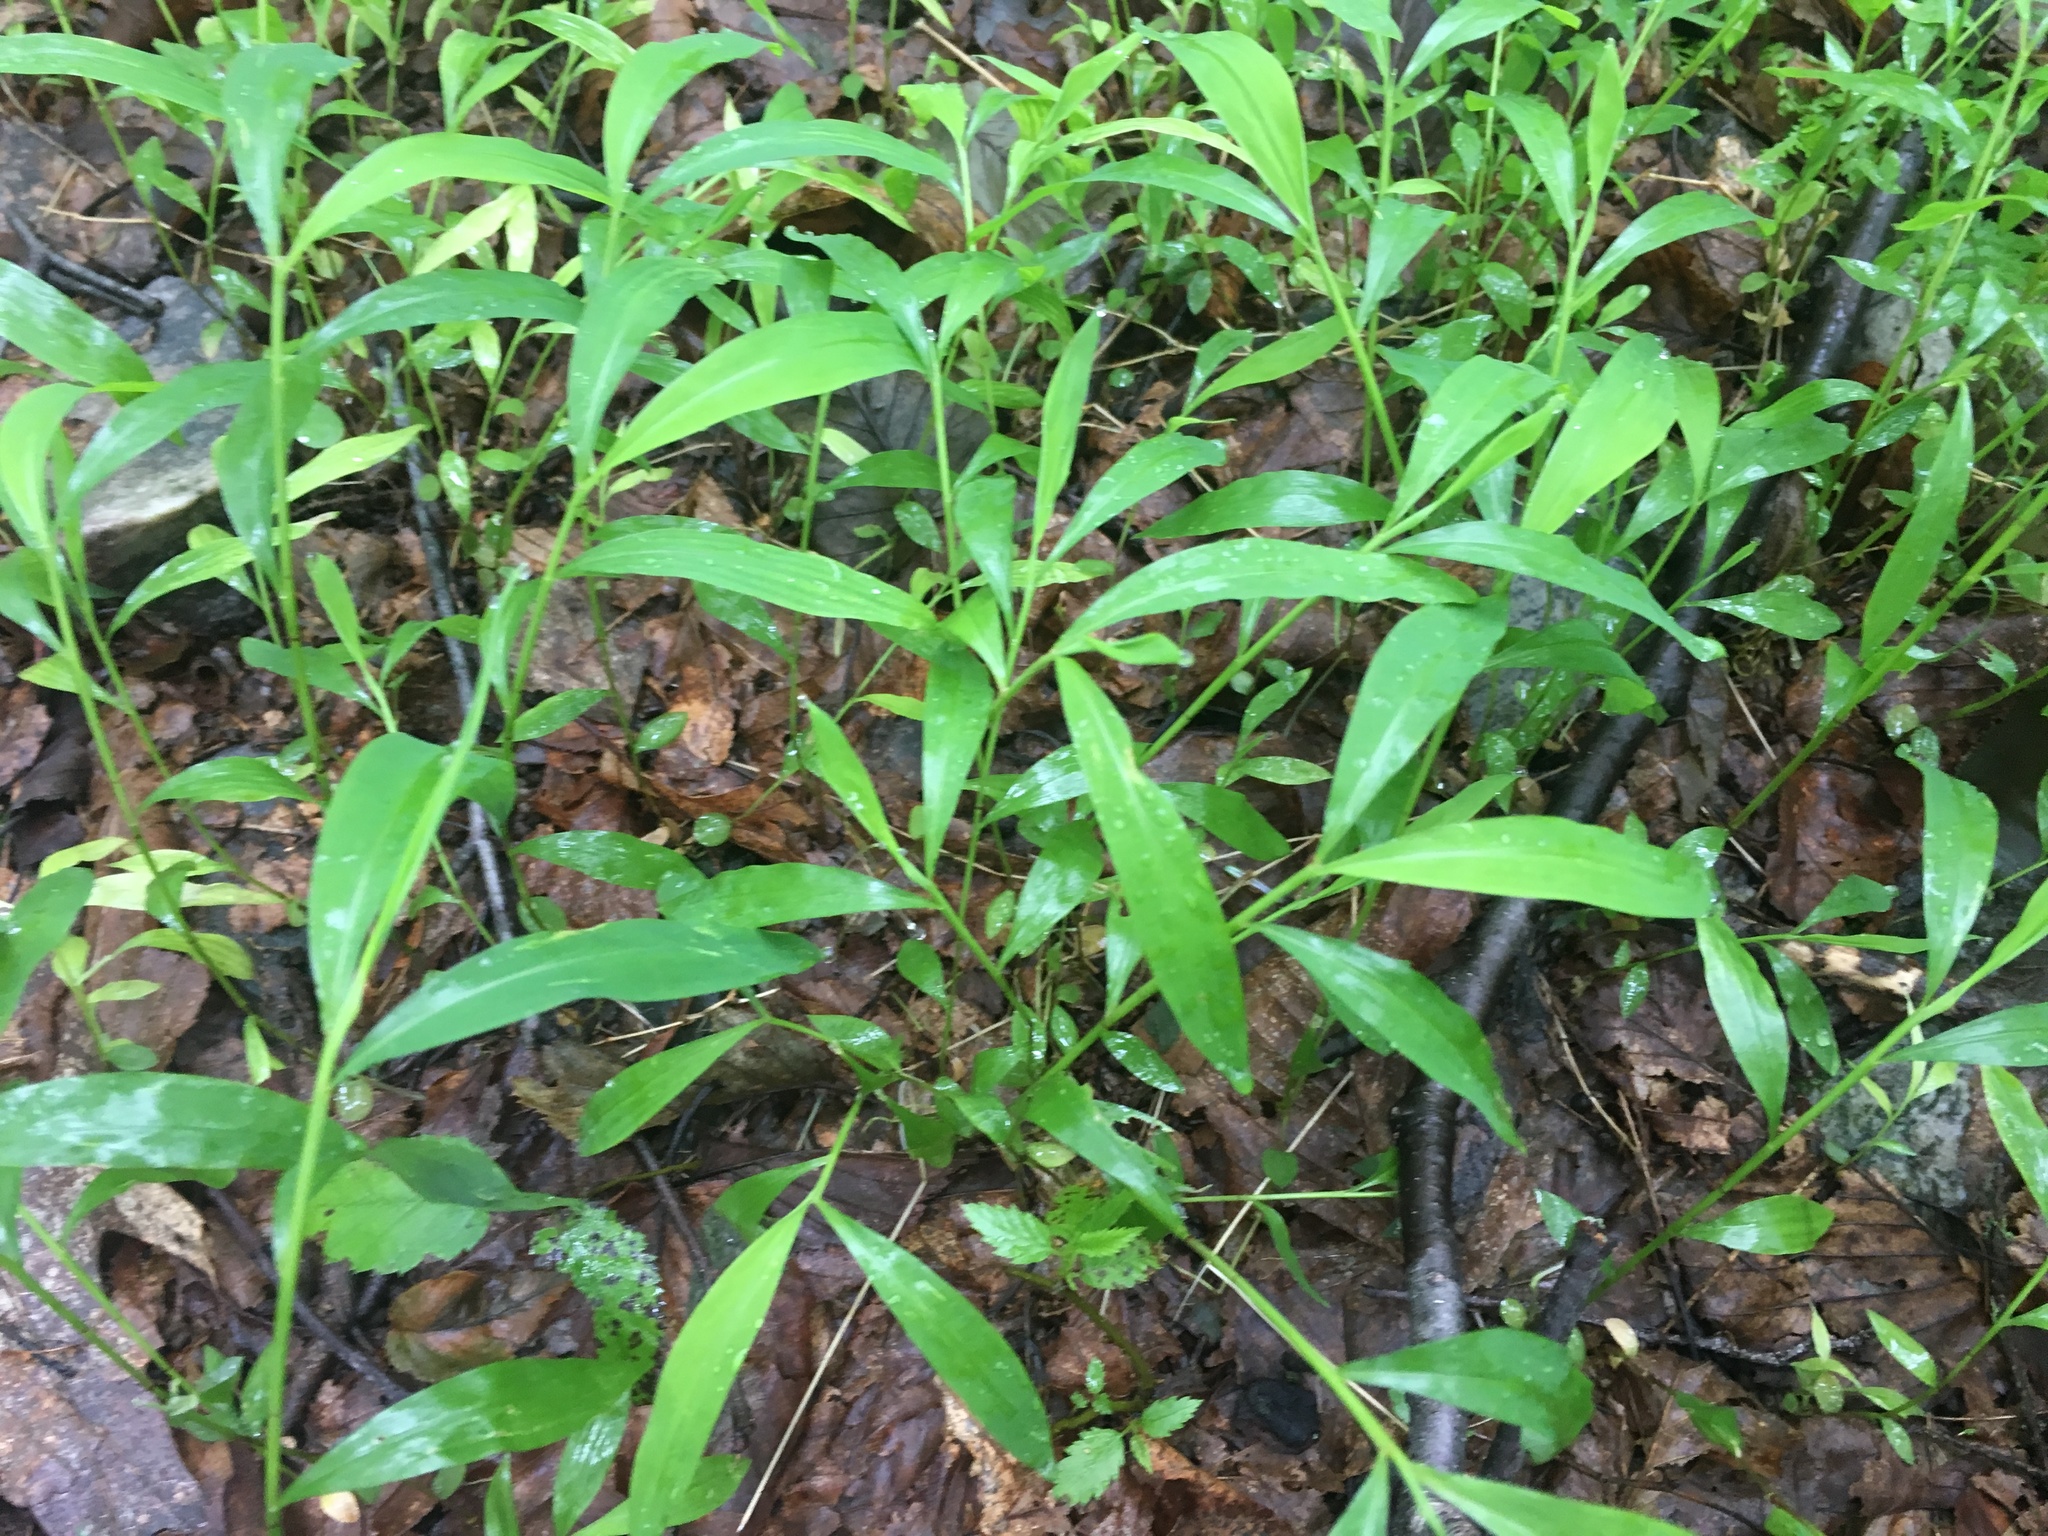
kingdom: Plantae
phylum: Tracheophyta
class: Liliopsida
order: Poales
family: Poaceae
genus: Microstegium
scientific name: Microstegium vimineum
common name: Japanese stiltgrass
